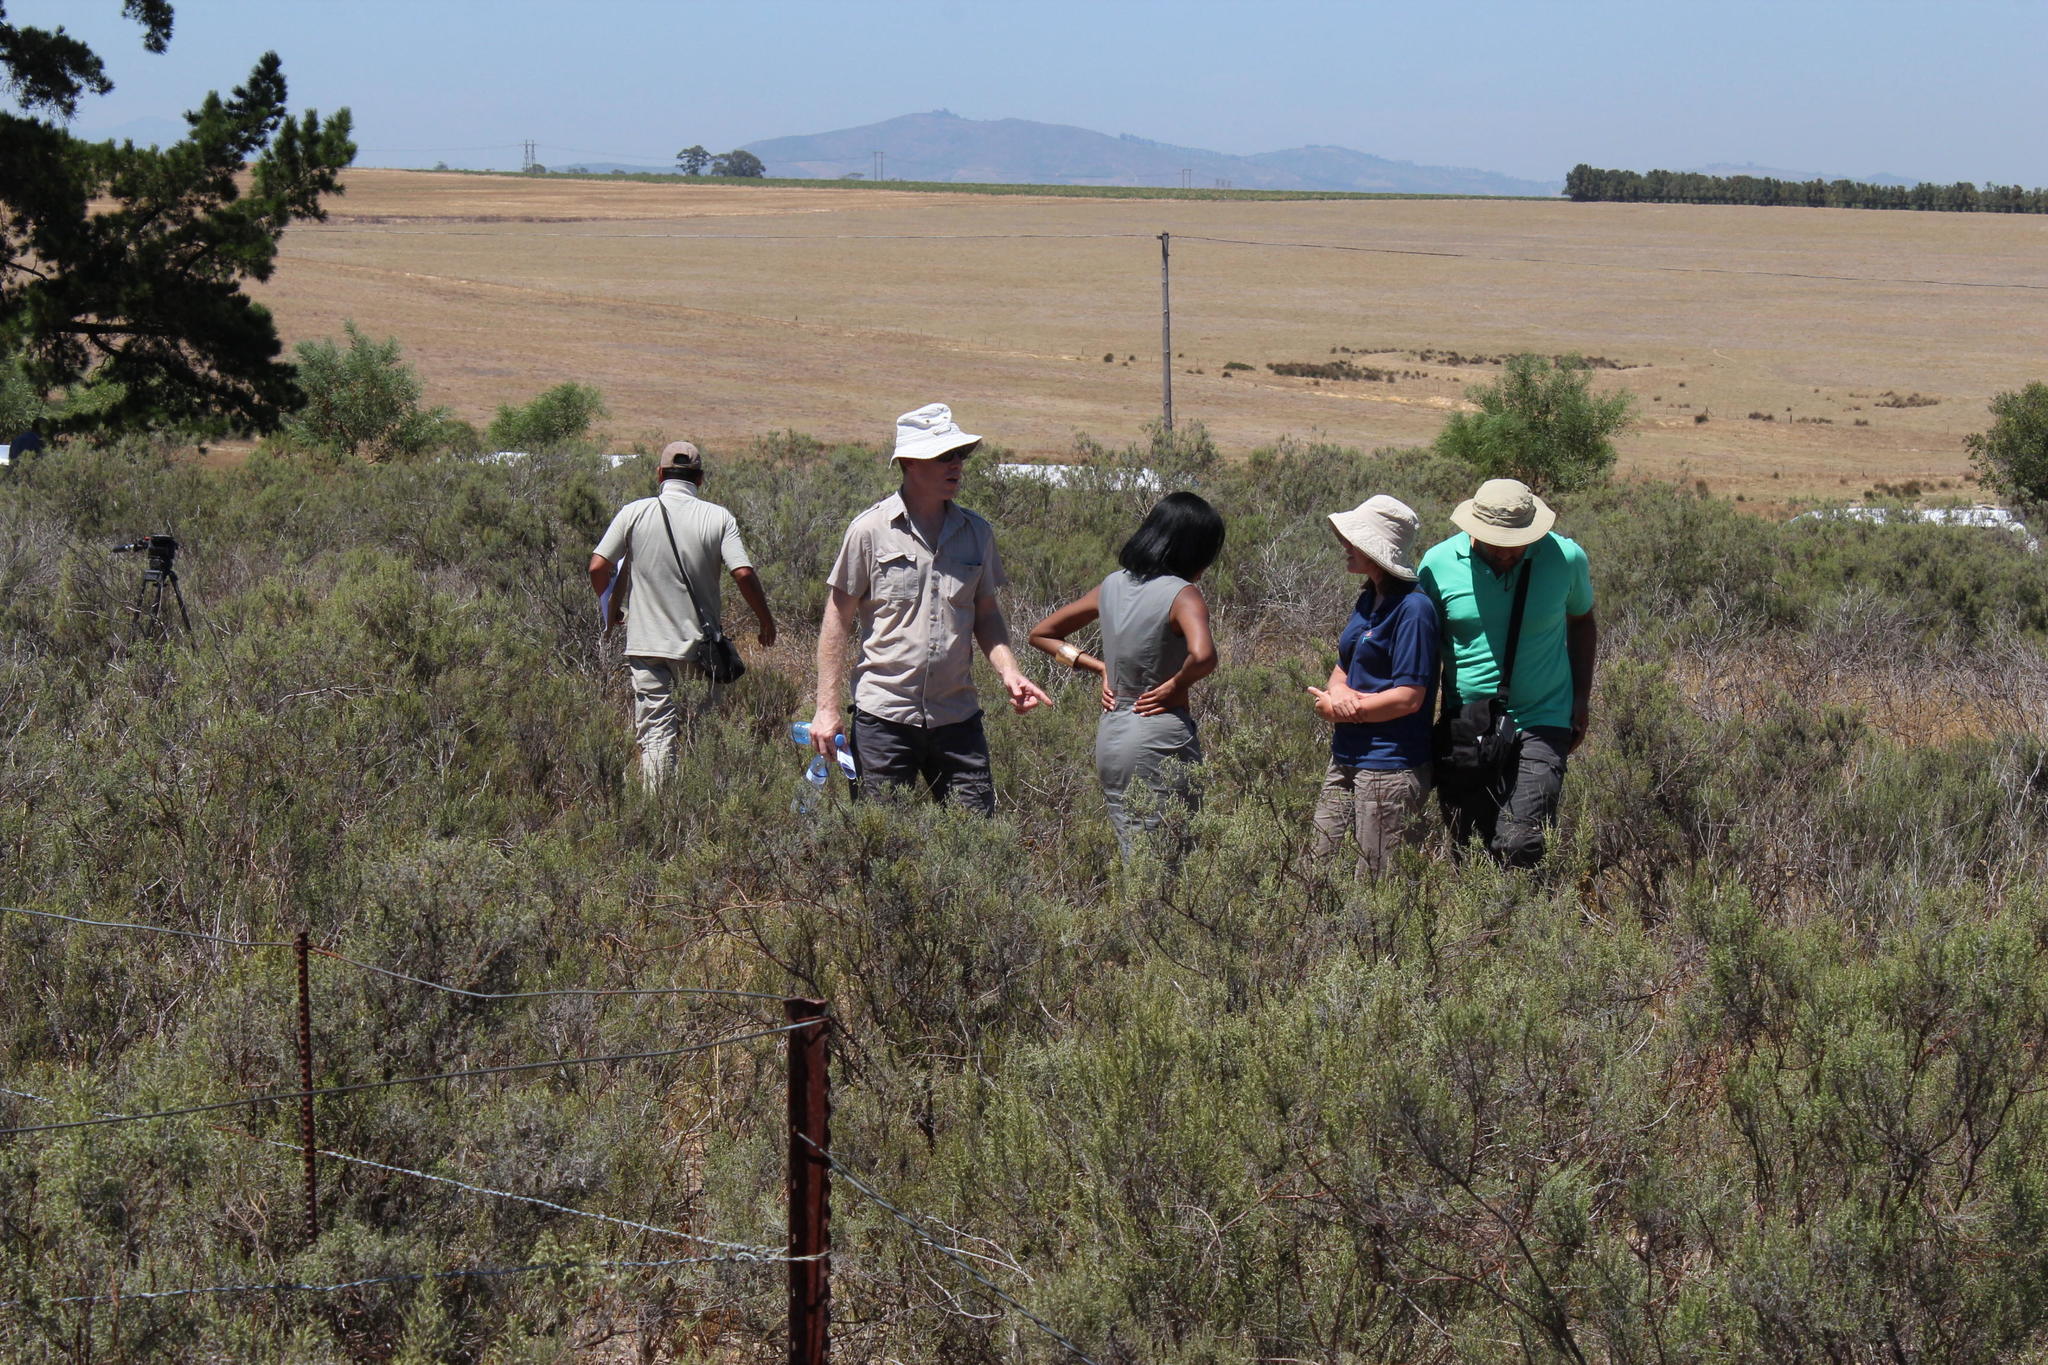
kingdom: Plantae
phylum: Tracheophyta
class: Magnoliopsida
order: Asterales
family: Asteraceae
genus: Dicerothamnus
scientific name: Dicerothamnus rhinocerotis
